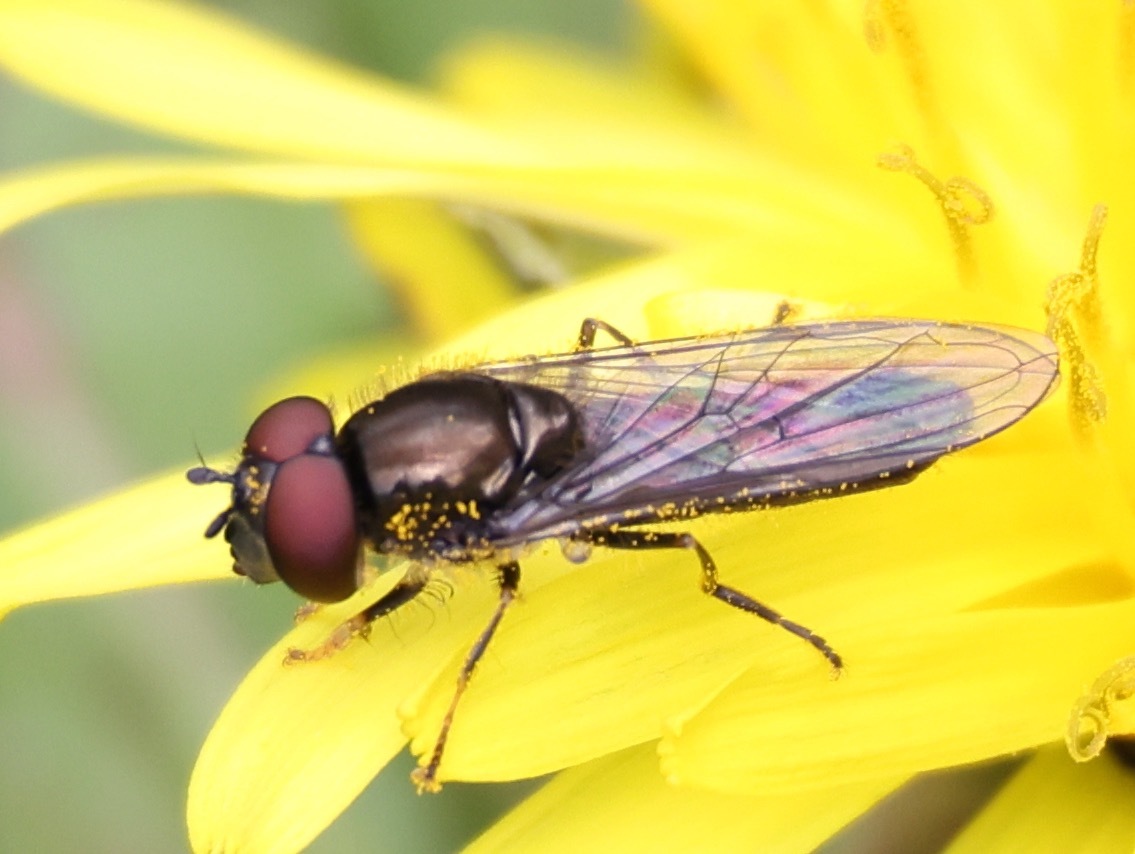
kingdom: Animalia
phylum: Arthropoda
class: Insecta
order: Diptera
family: Syrphidae
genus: Platycheirus
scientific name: Platycheirus albimanus
